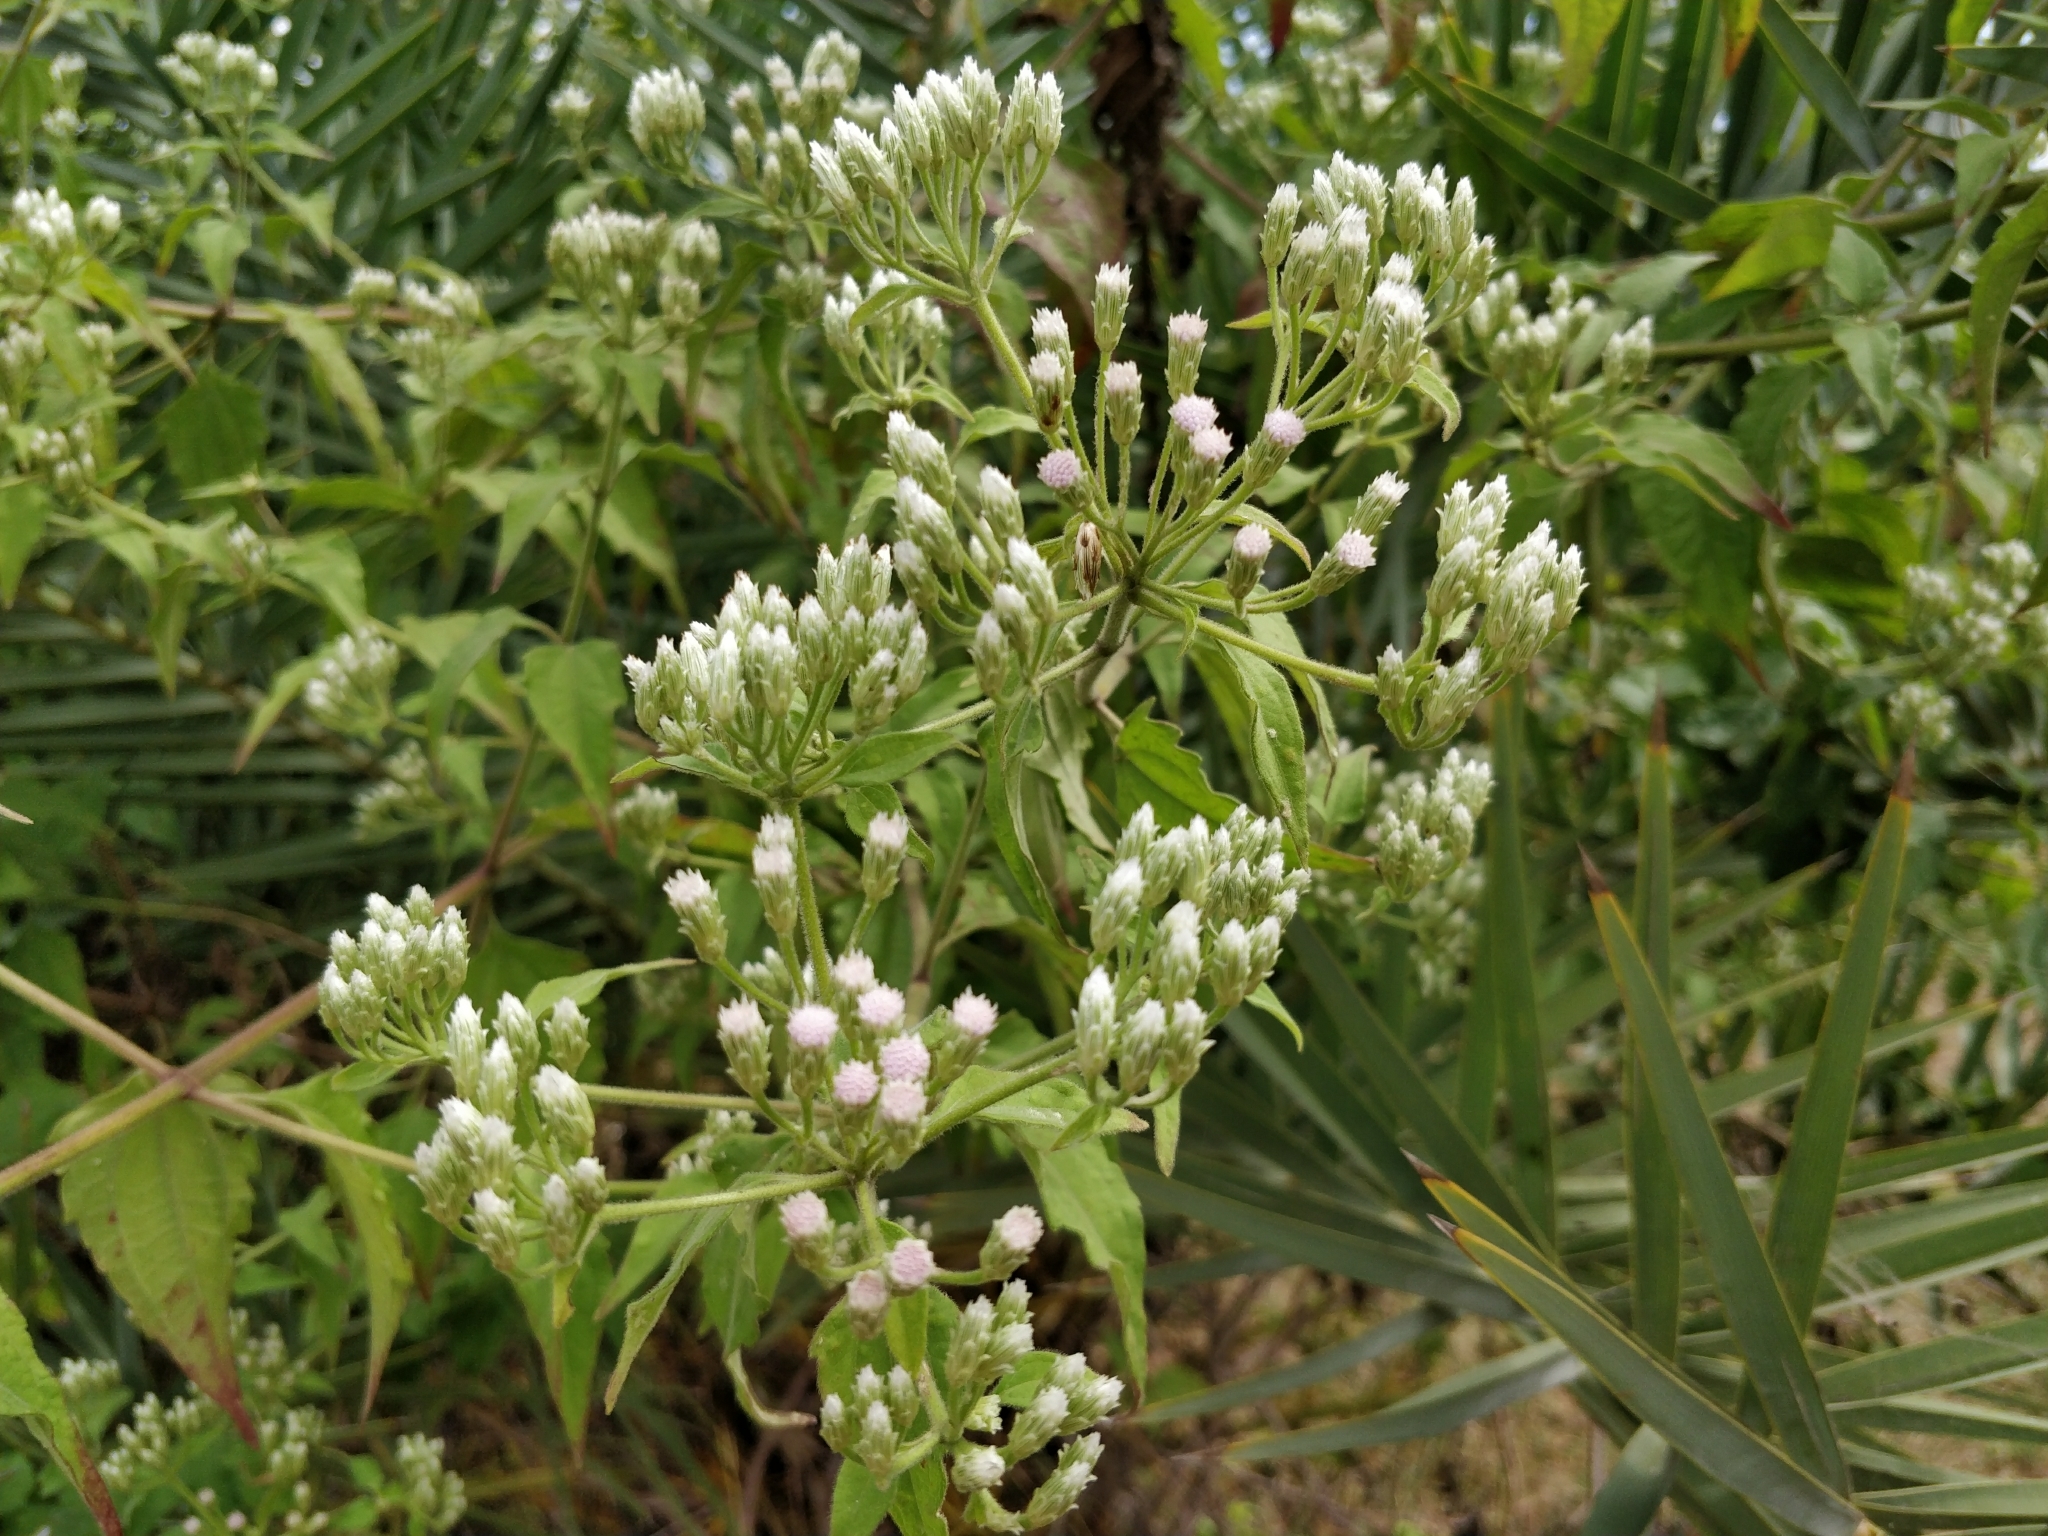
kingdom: Plantae
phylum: Tracheophyta
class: Magnoliopsida
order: Asterales
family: Asteraceae
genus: Chromolaena
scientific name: Chromolaena odorata
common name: Siamweed
